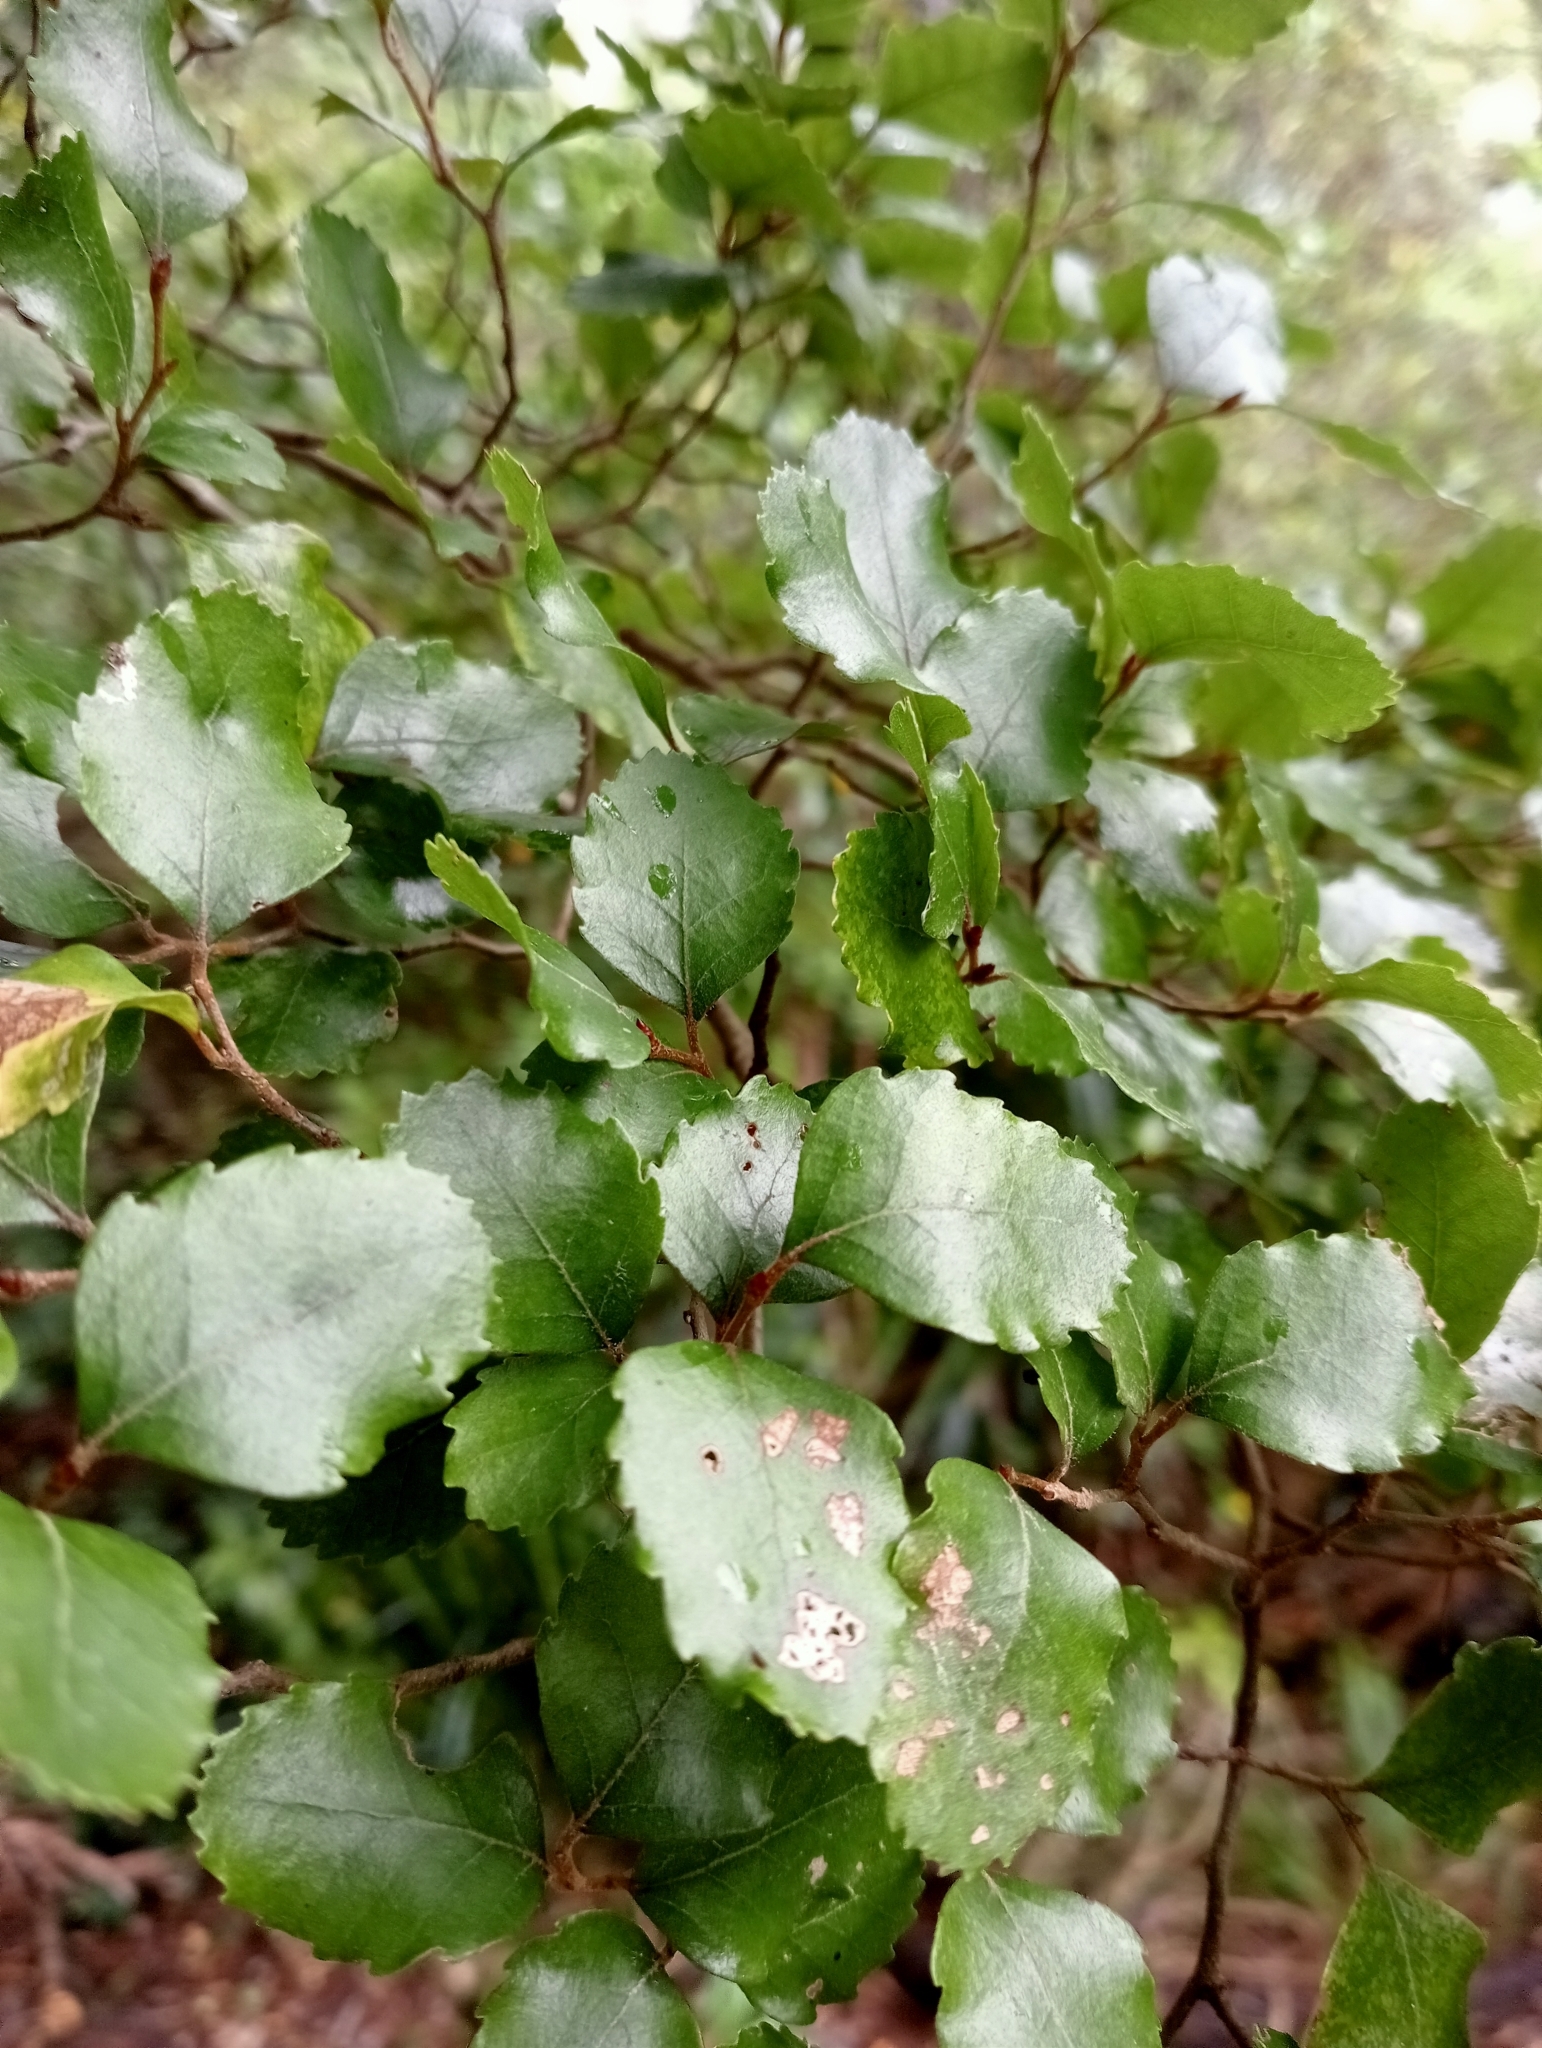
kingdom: Plantae
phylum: Tracheophyta
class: Magnoliopsida
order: Fagales
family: Nothofagaceae
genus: Nothofagus
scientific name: Nothofagus truncata
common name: Hard beech
